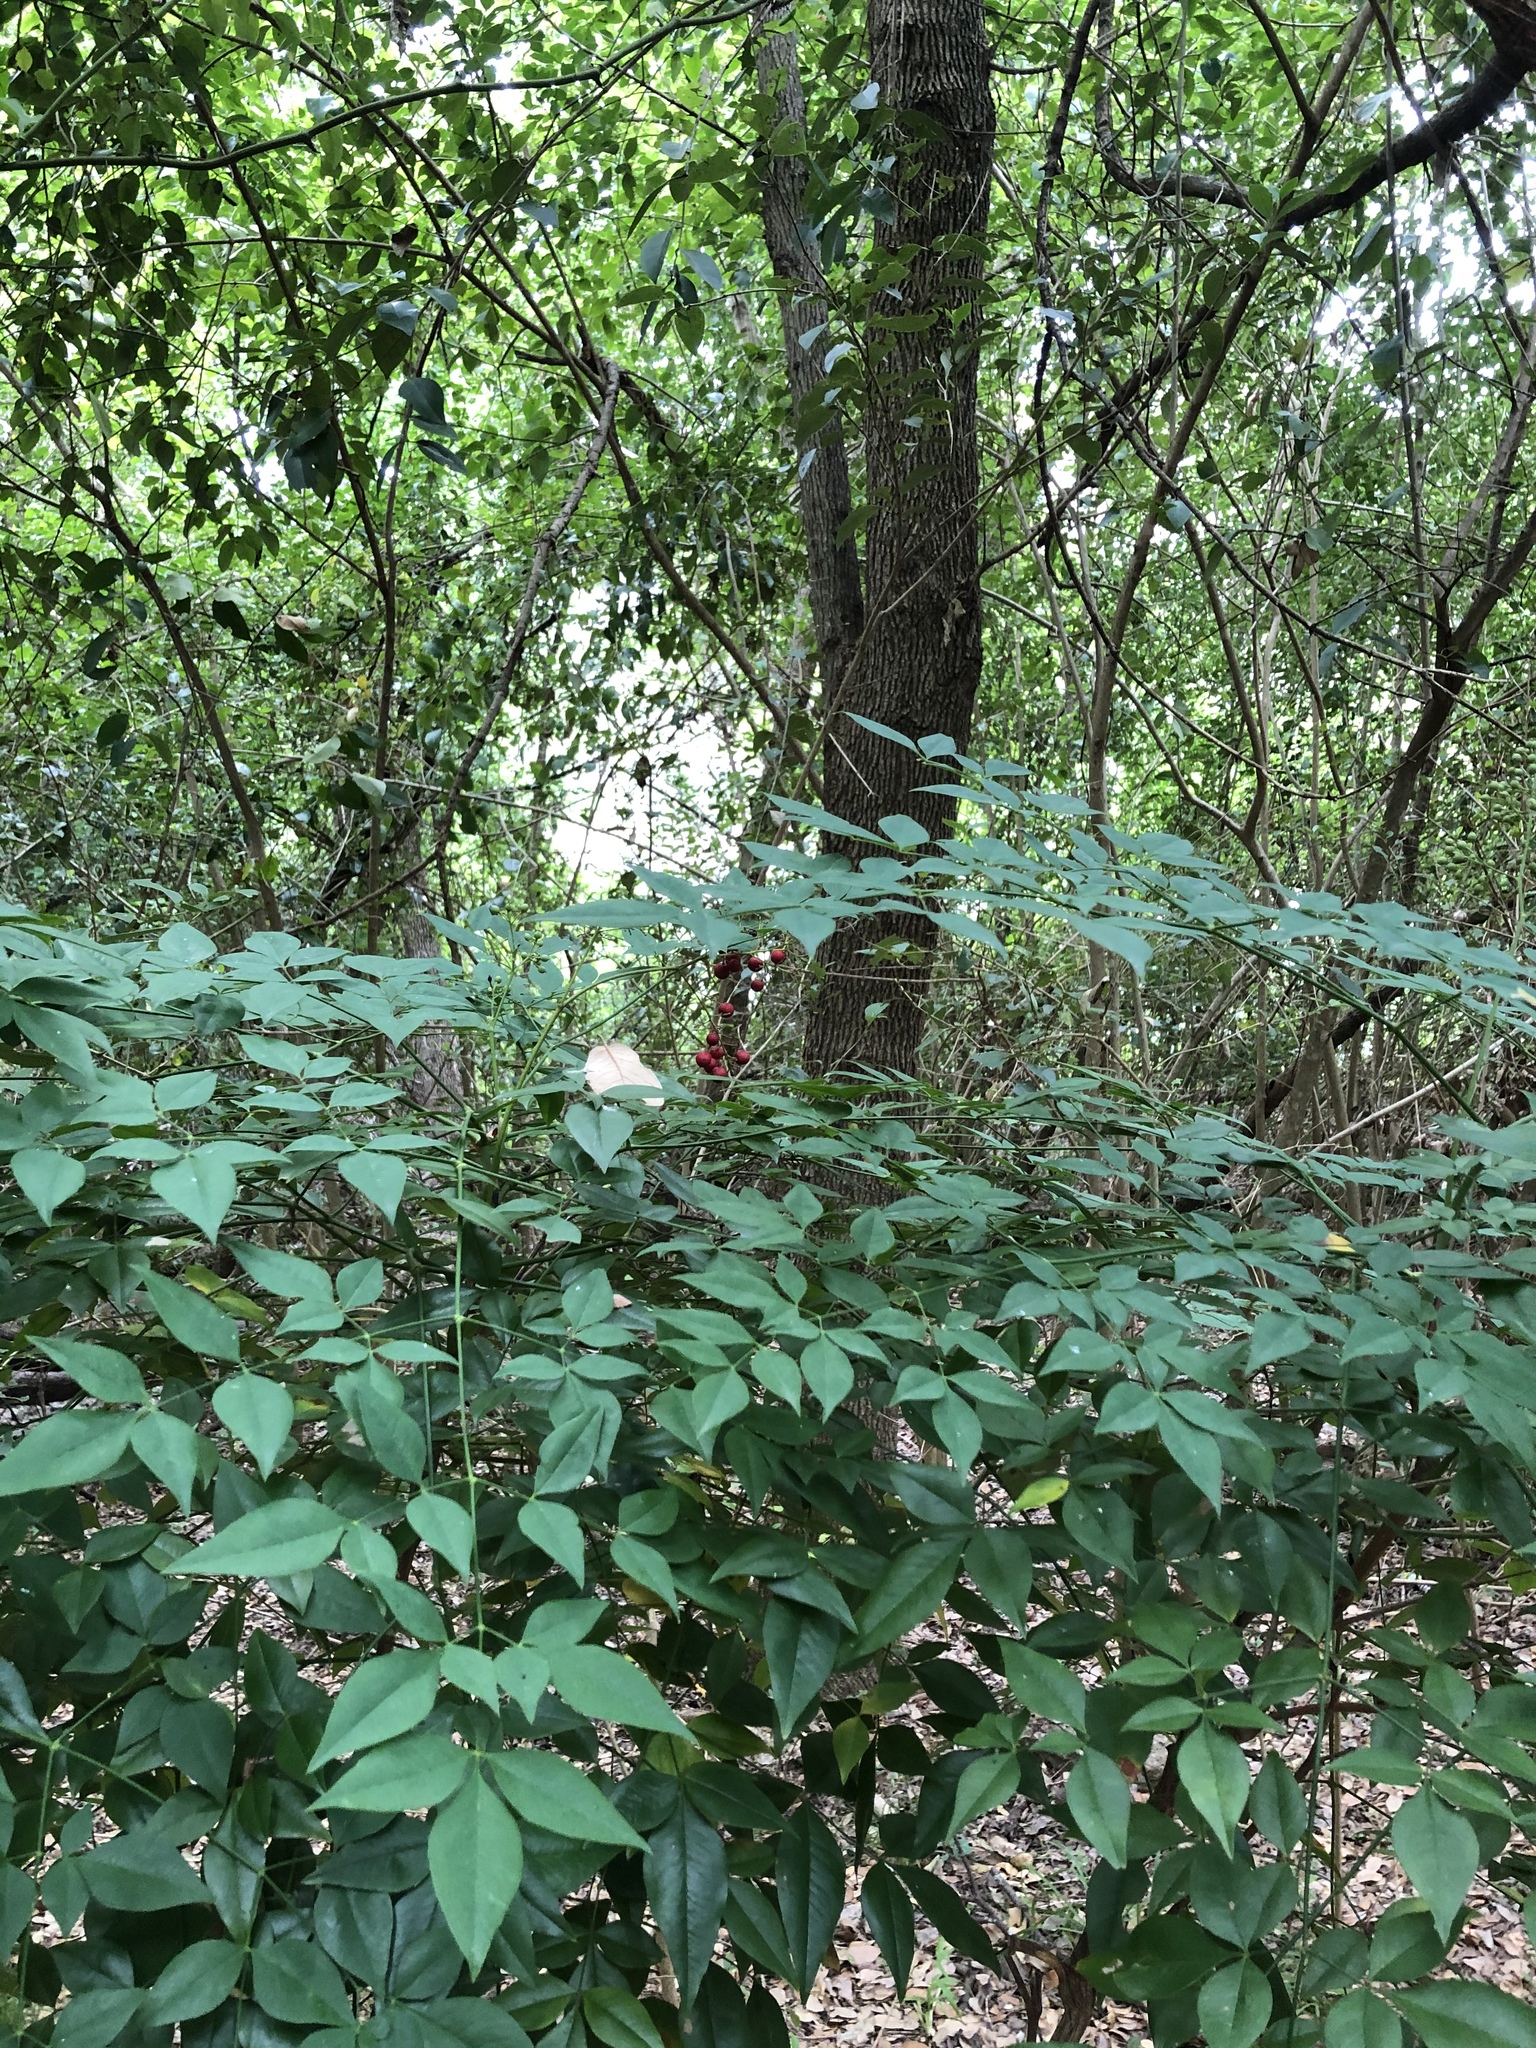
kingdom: Plantae
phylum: Tracheophyta
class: Magnoliopsida
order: Ranunculales
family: Berberidaceae
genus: Nandina
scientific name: Nandina domestica
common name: Sacred bamboo
